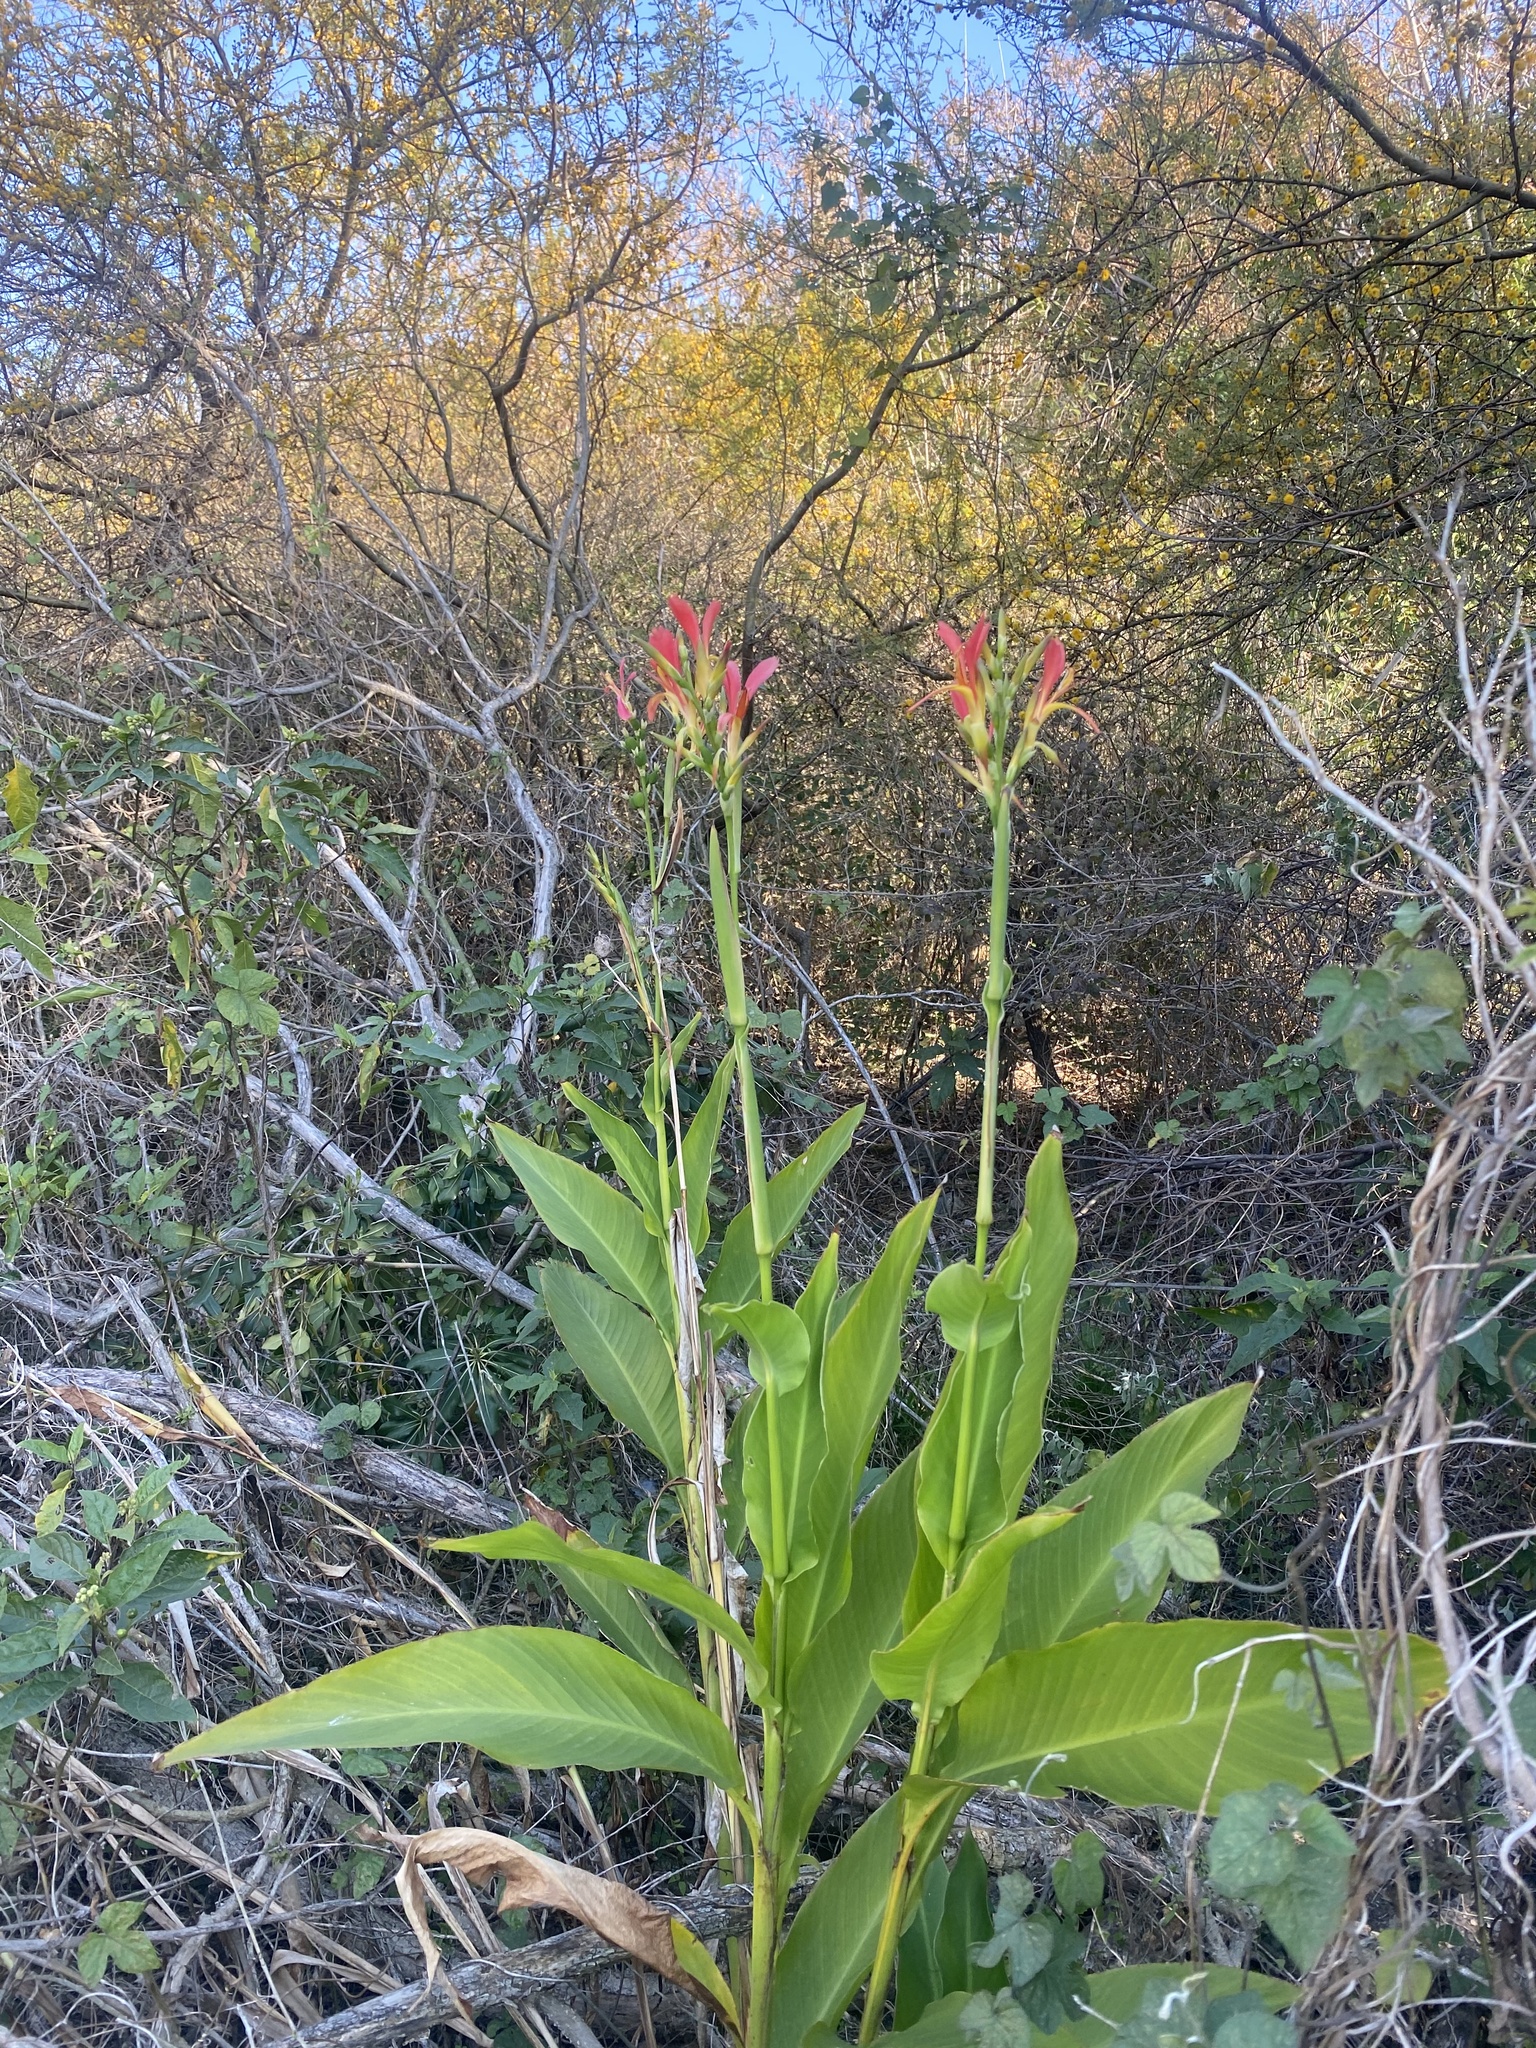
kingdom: Plantae
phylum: Tracheophyta
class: Liliopsida
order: Zingiberales
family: Cannaceae
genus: Canna
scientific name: Canna indica
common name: Indian shot
